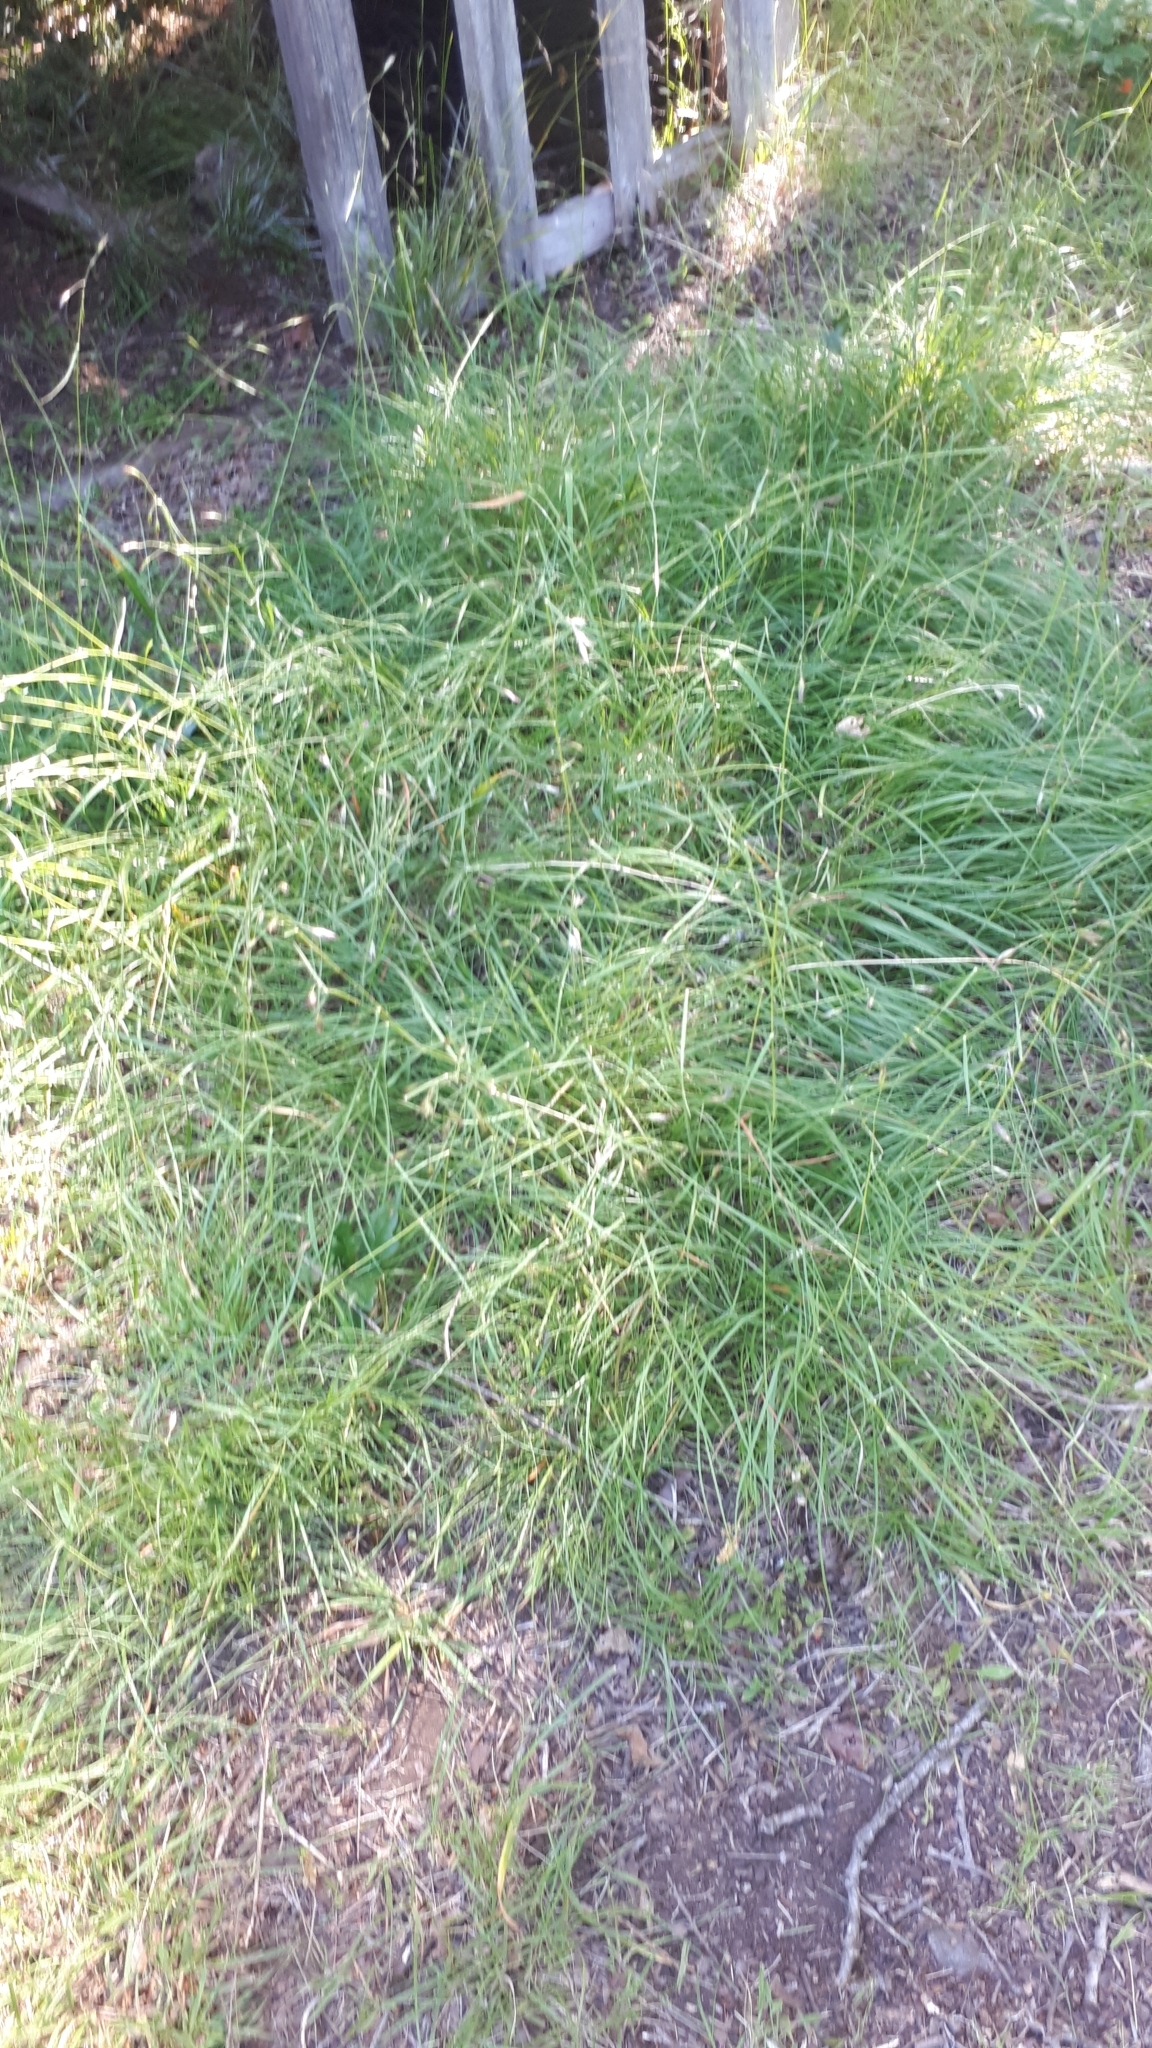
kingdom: Plantae
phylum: Tracheophyta
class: Liliopsida
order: Poales
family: Poaceae
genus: Danthonia
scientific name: Danthonia californica
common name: California oat grass
